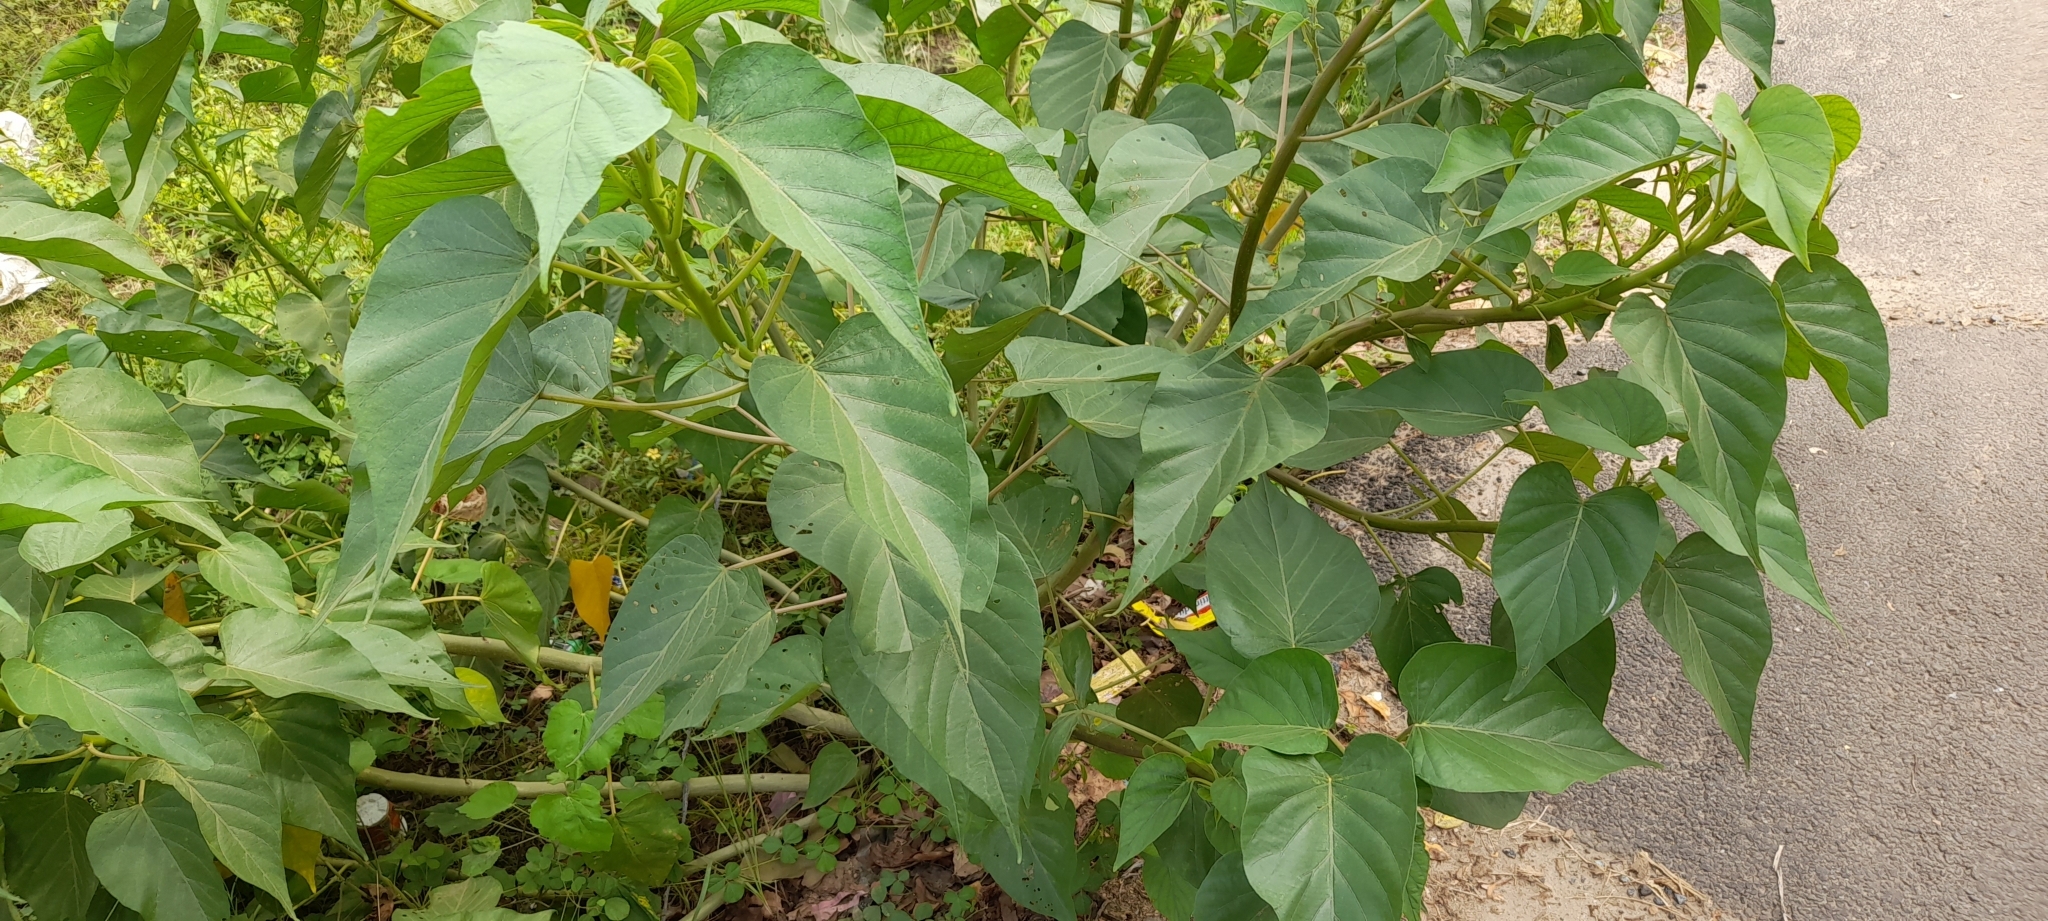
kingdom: Plantae
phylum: Tracheophyta
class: Magnoliopsida
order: Solanales
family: Convolvulaceae
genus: Ipomoea
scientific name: Ipomoea carnea
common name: Morning-glory
